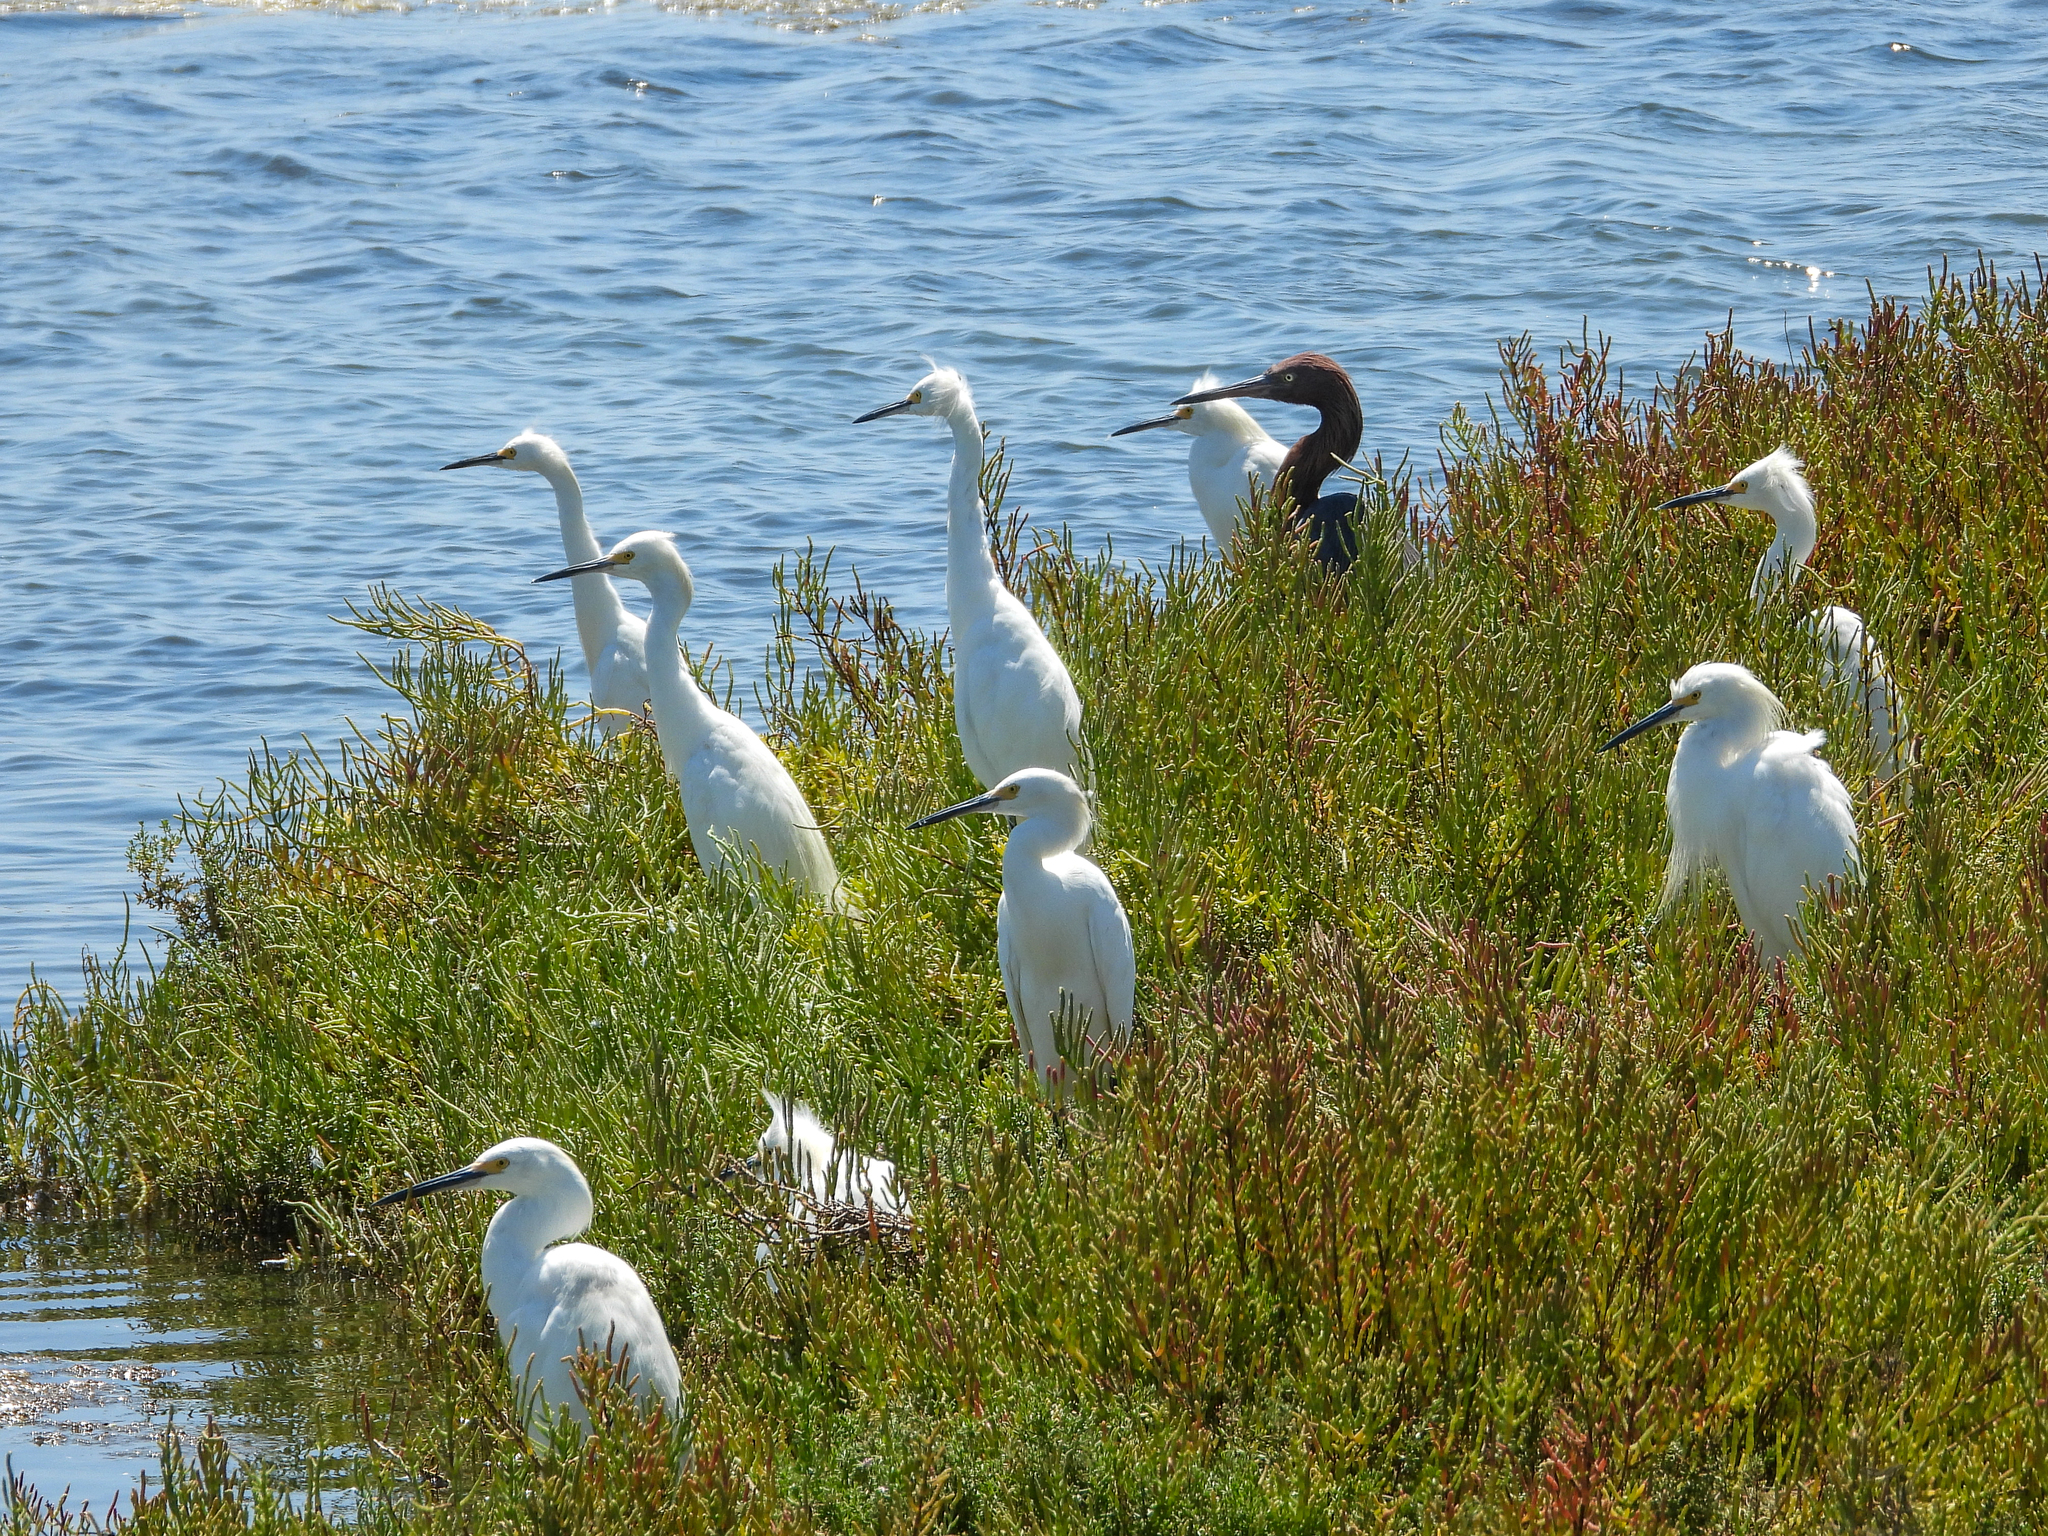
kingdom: Animalia
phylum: Chordata
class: Aves
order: Pelecaniformes
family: Ardeidae
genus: Egretta
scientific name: Egretta rufescens
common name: Reddish egret
